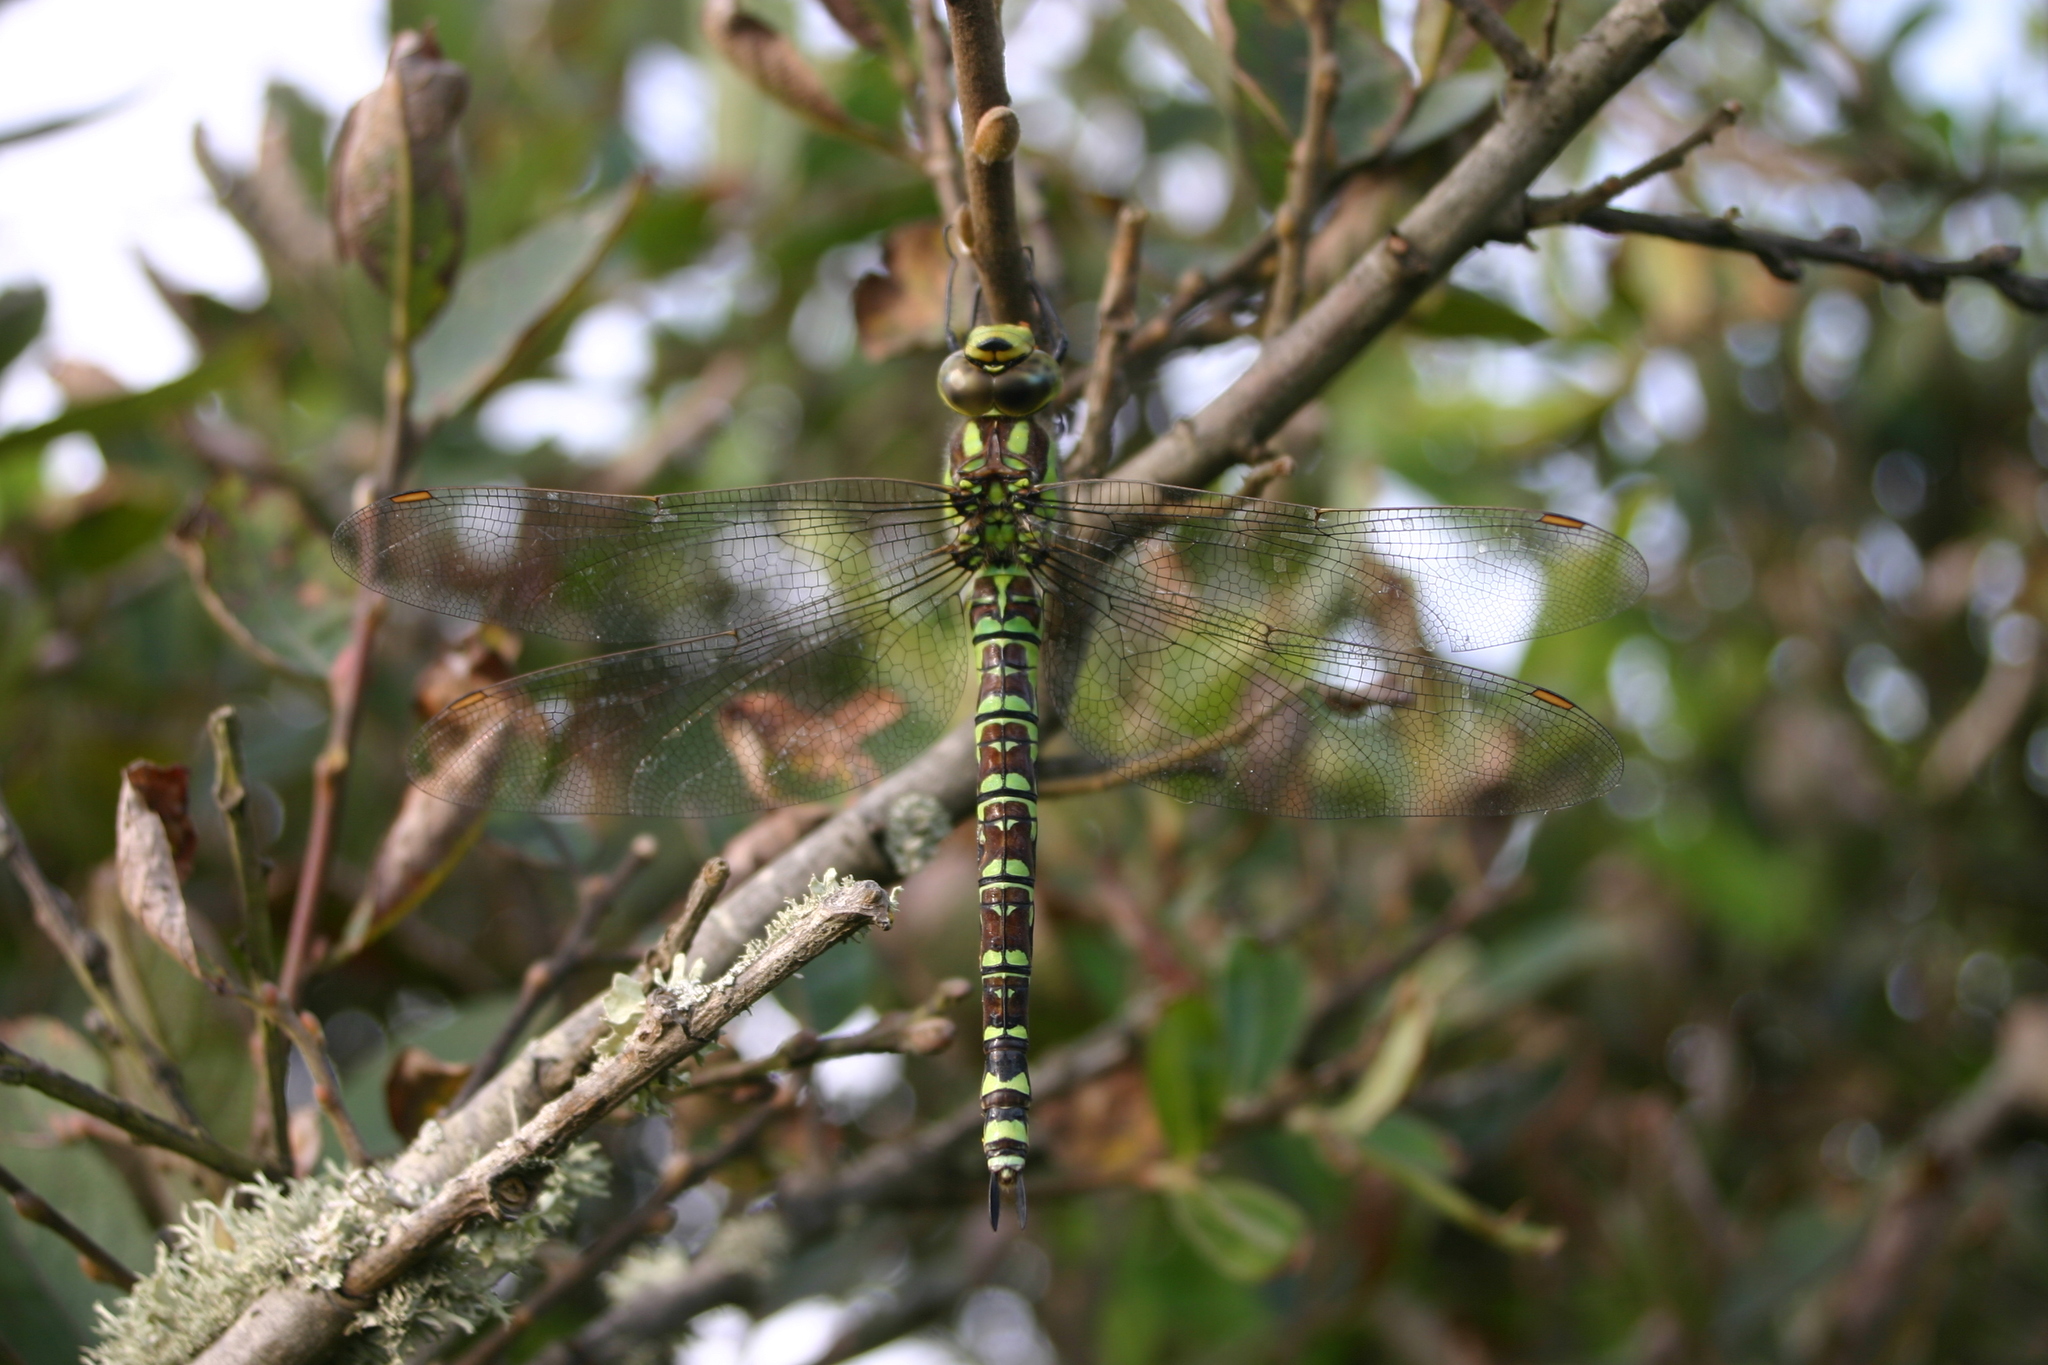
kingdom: Animalia
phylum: Arthropoda
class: Insecta
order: Odonata
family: Aeshnidae
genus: Aeshna
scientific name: Aeshna cyanea
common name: Southern hawker
